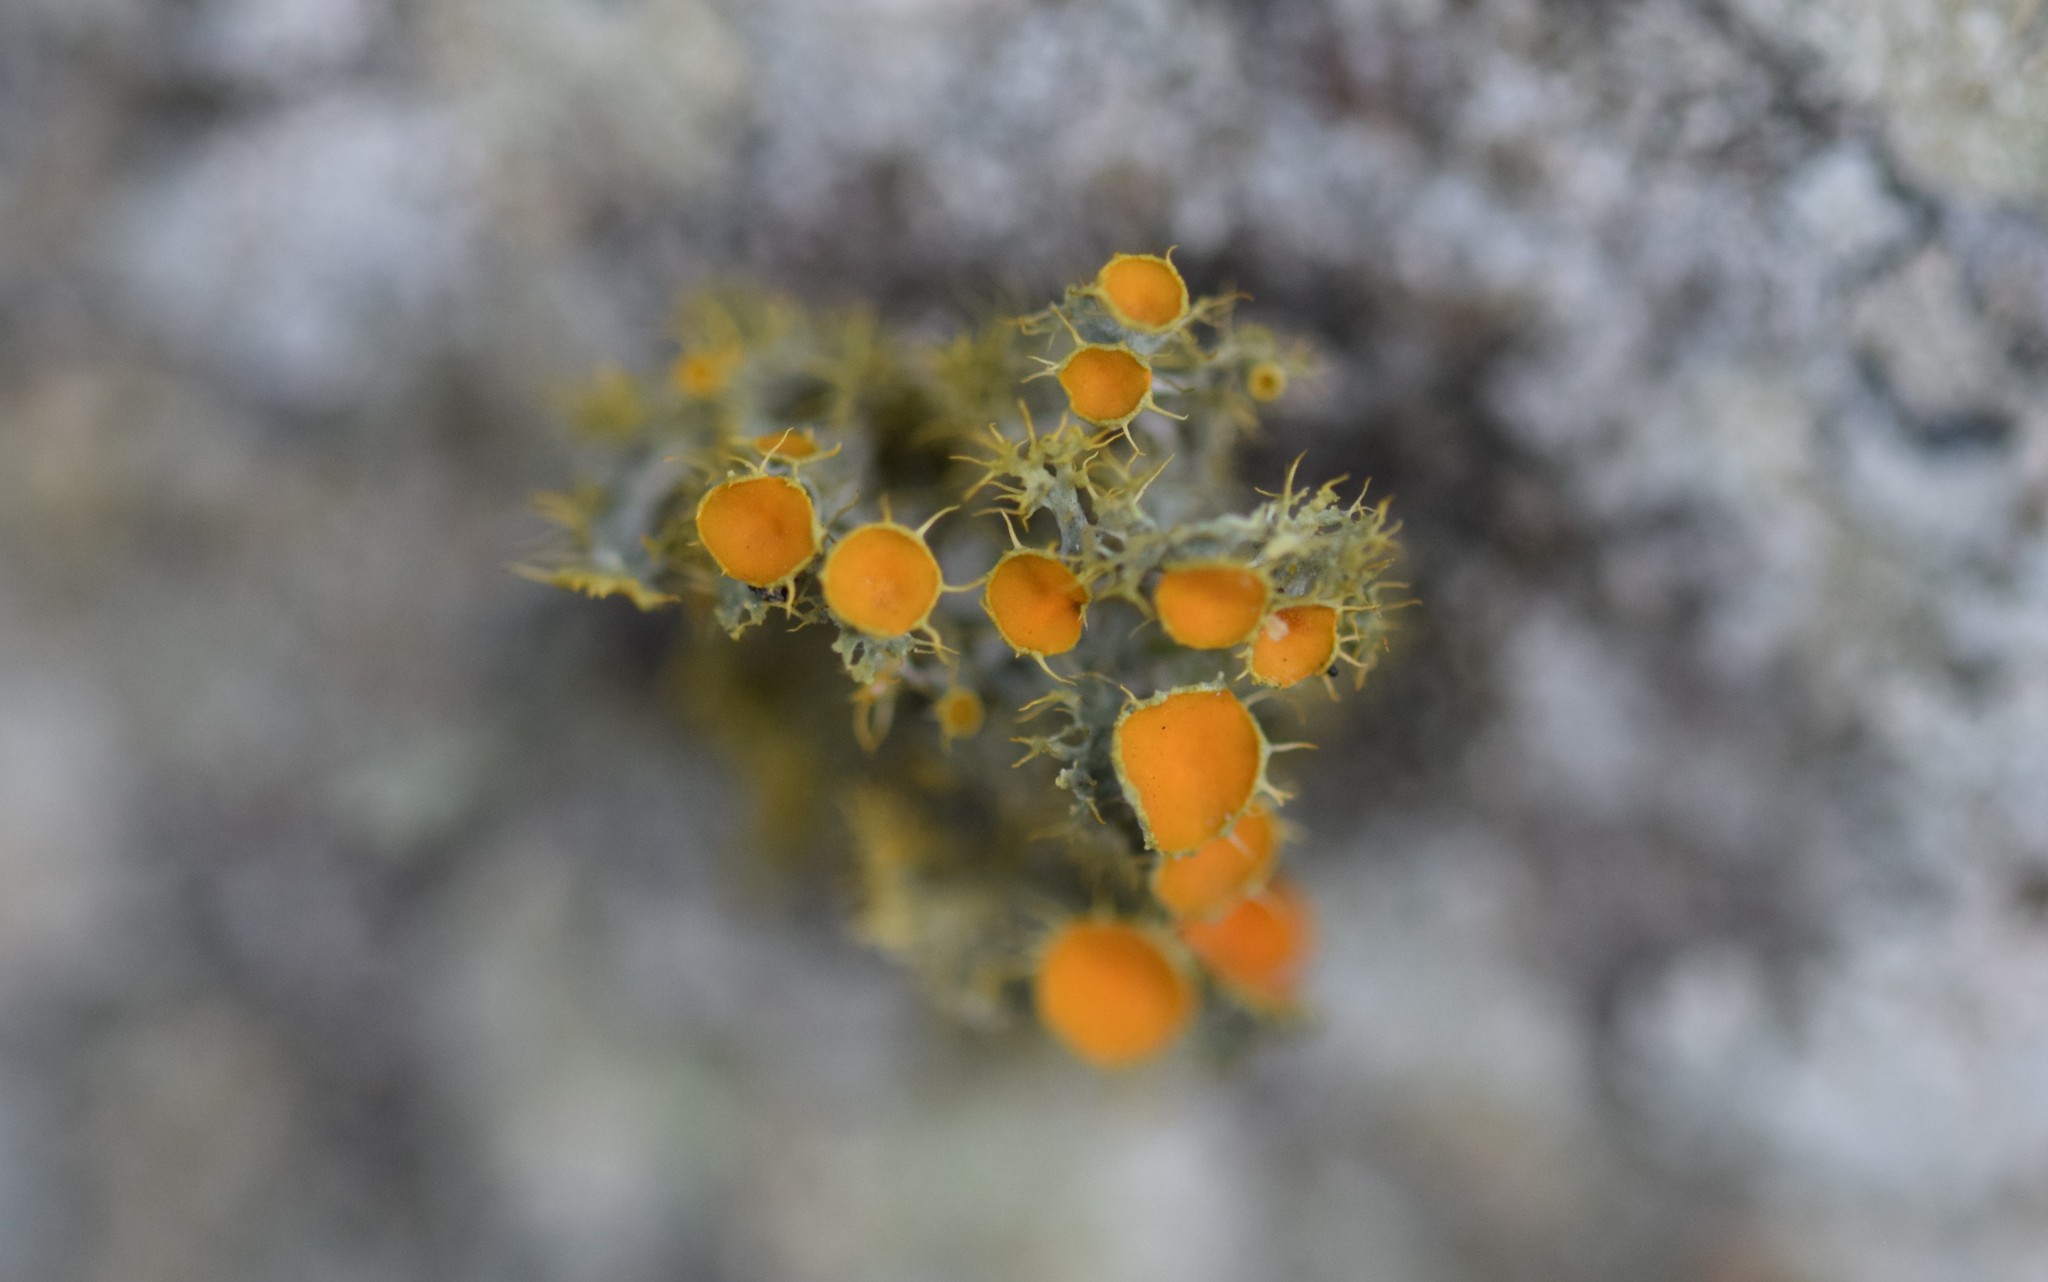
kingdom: Fungi
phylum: Ascomycota
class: Lecanoromycetes
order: Teloschistales
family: Teloschistaceae
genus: Niorma
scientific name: Niorma chrysophthalma
